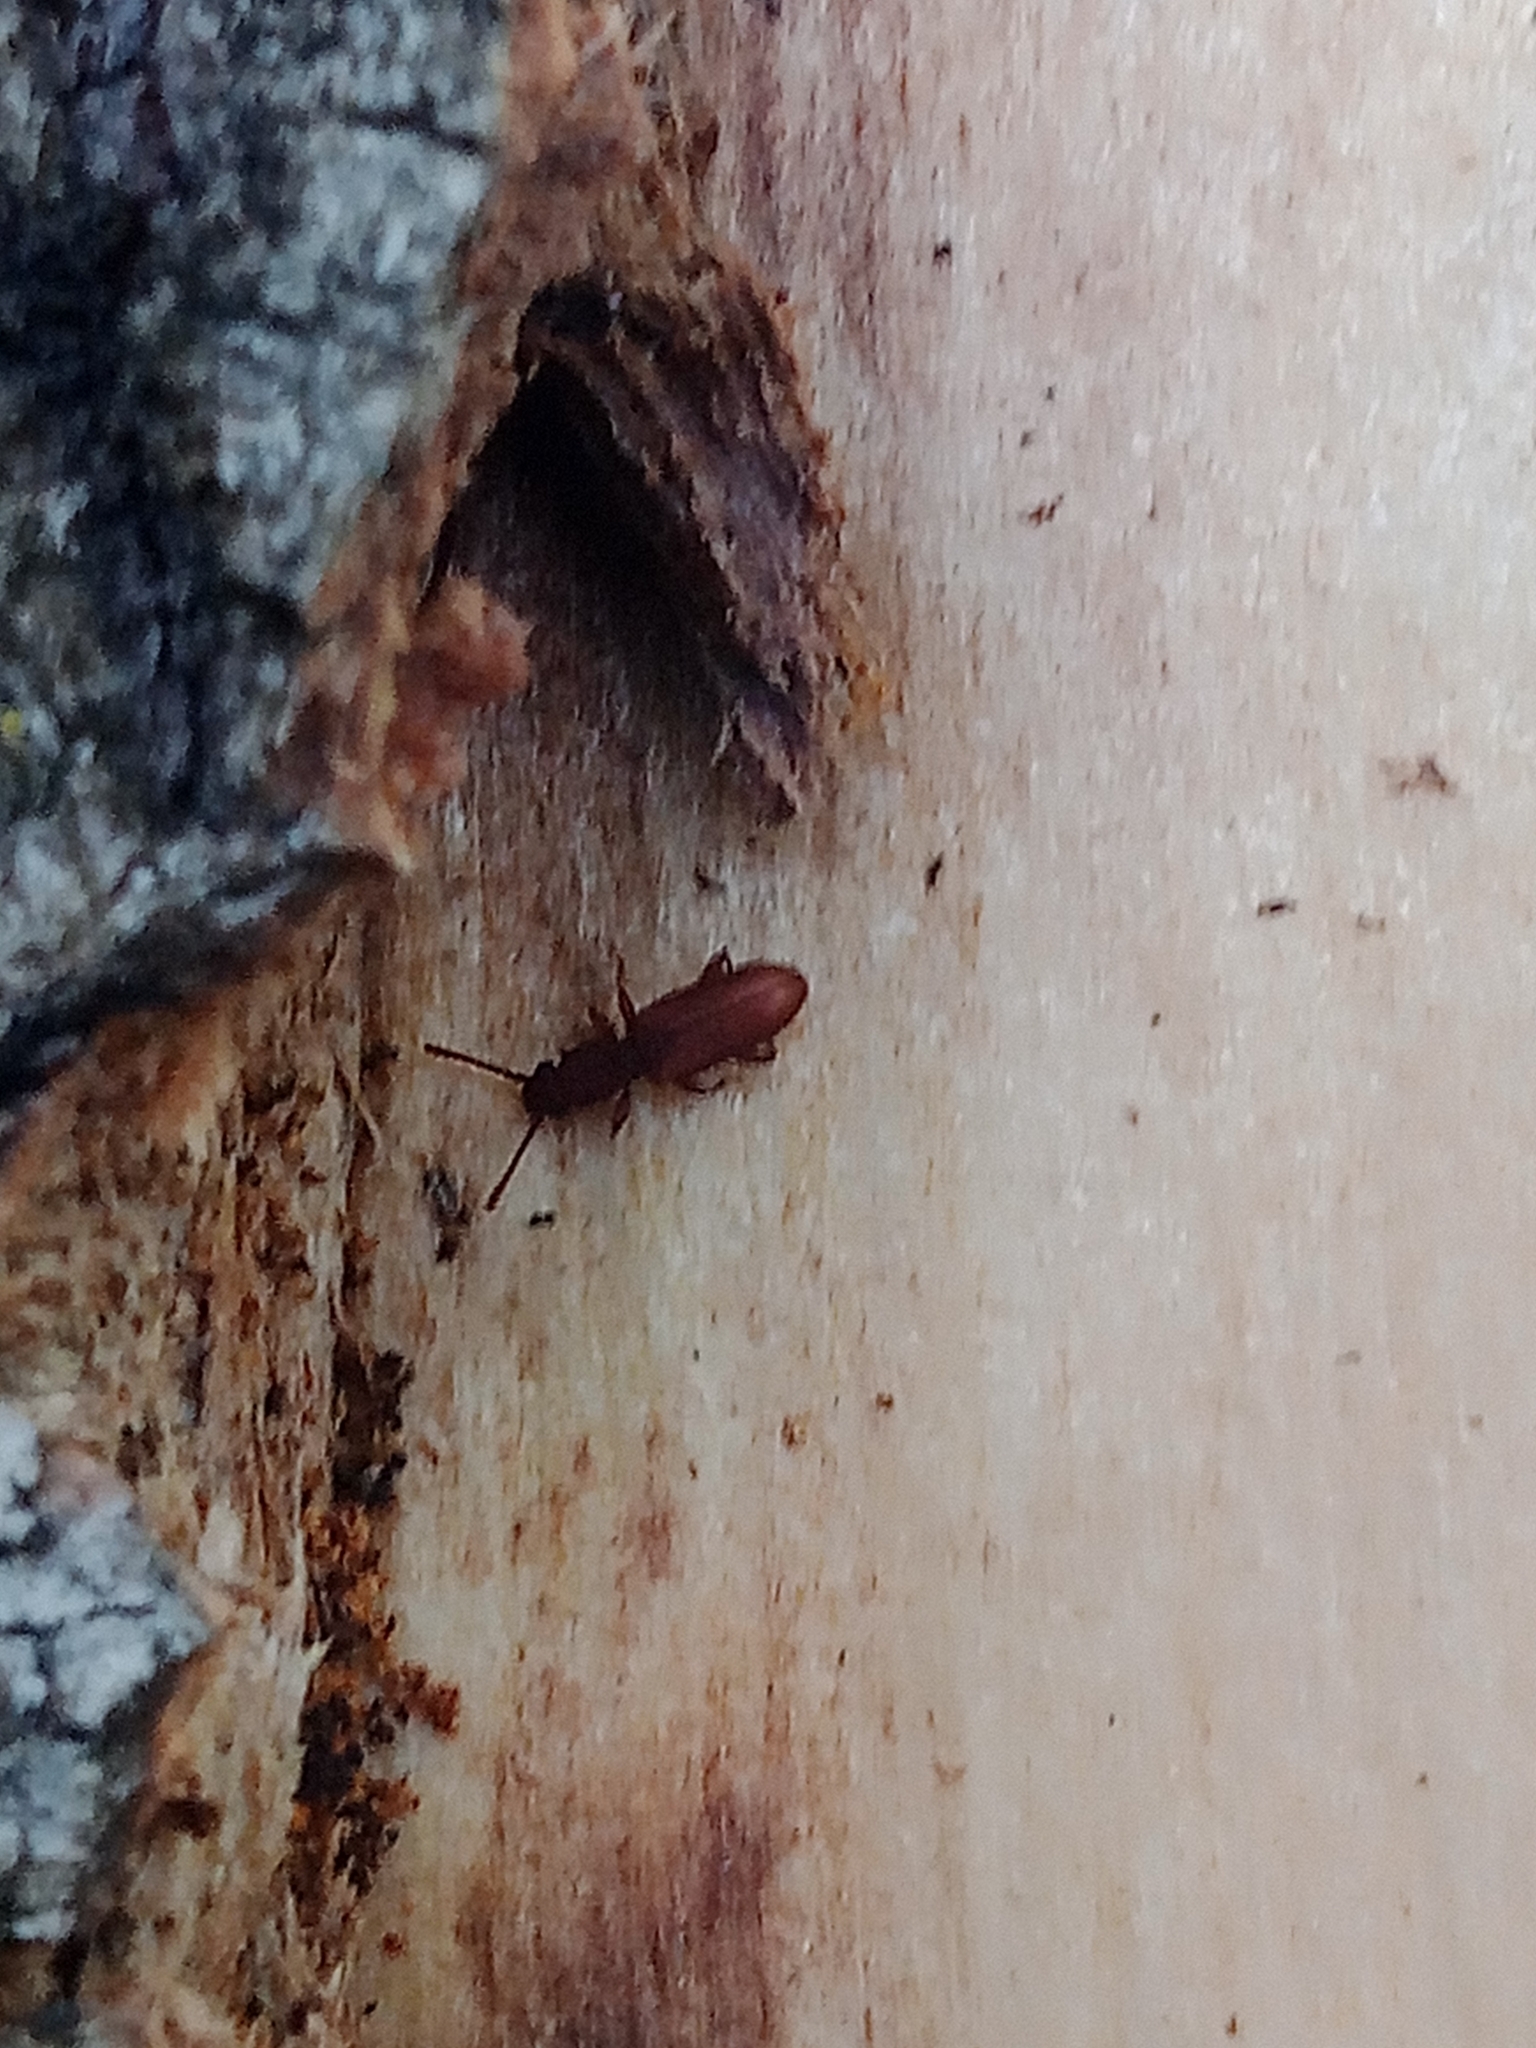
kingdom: Animalia
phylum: Arthropoda
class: Insecta
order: Coleoptera
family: Curculionidae
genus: Pityogenes
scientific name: Pityogenes bidentatus
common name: Two-toothed pine beetle
